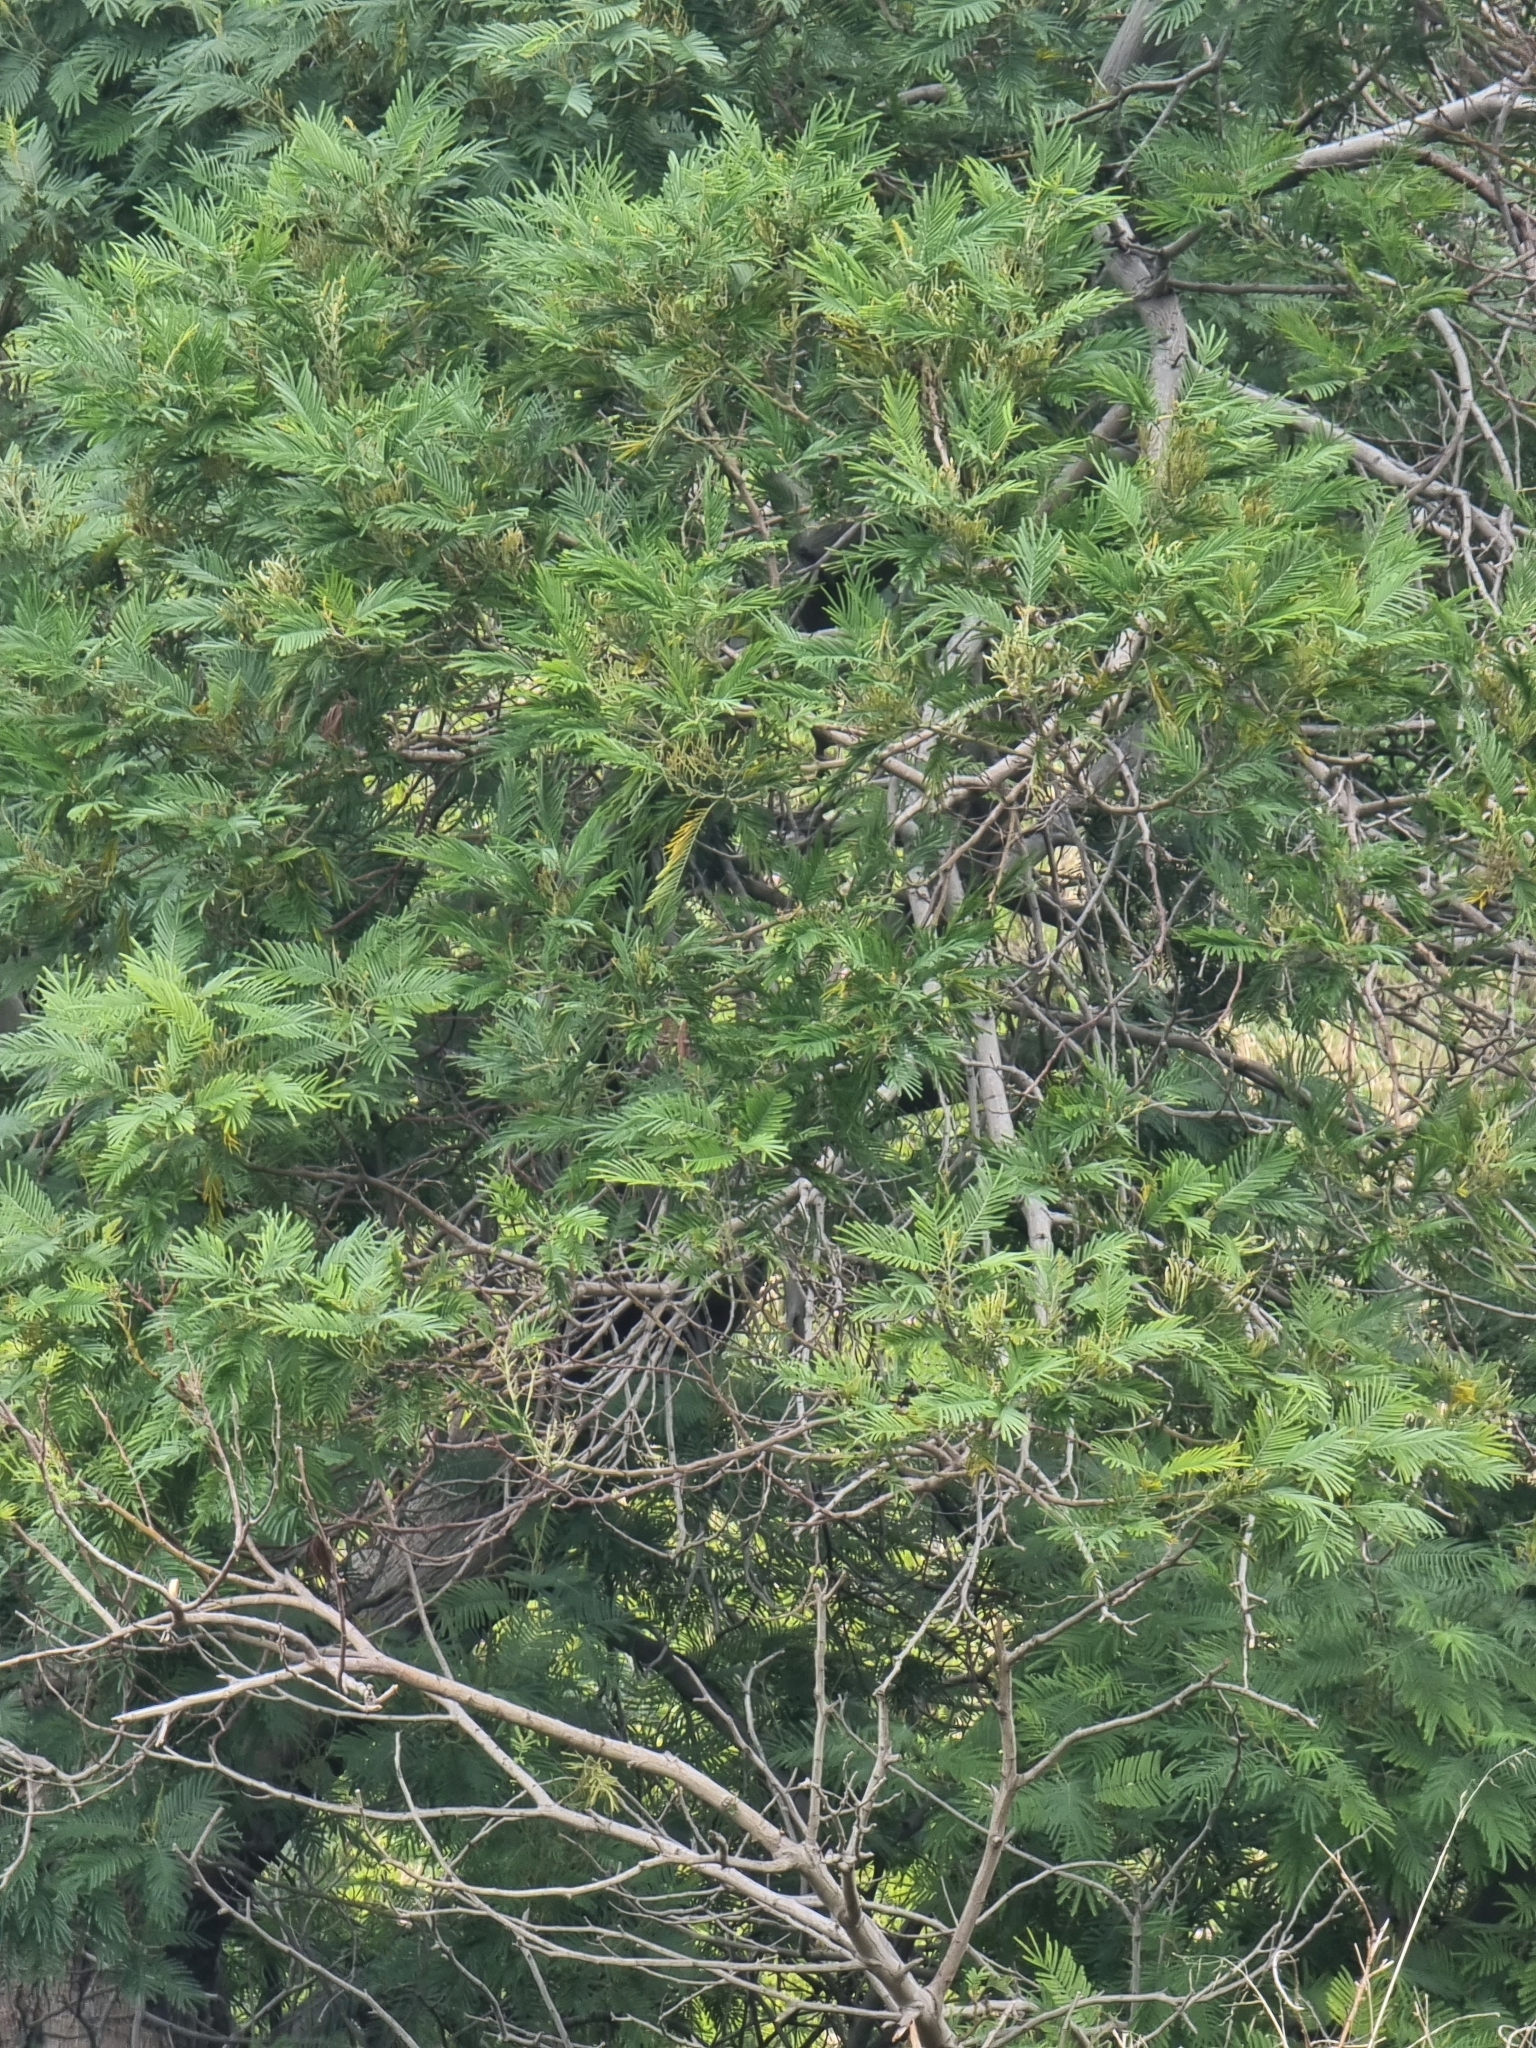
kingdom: Plantae
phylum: Tracheophyta
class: Magnoliopsida
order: Fabales
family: Fabaceae
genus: Acacia
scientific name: Acacia mearnsii
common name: Black wattle
